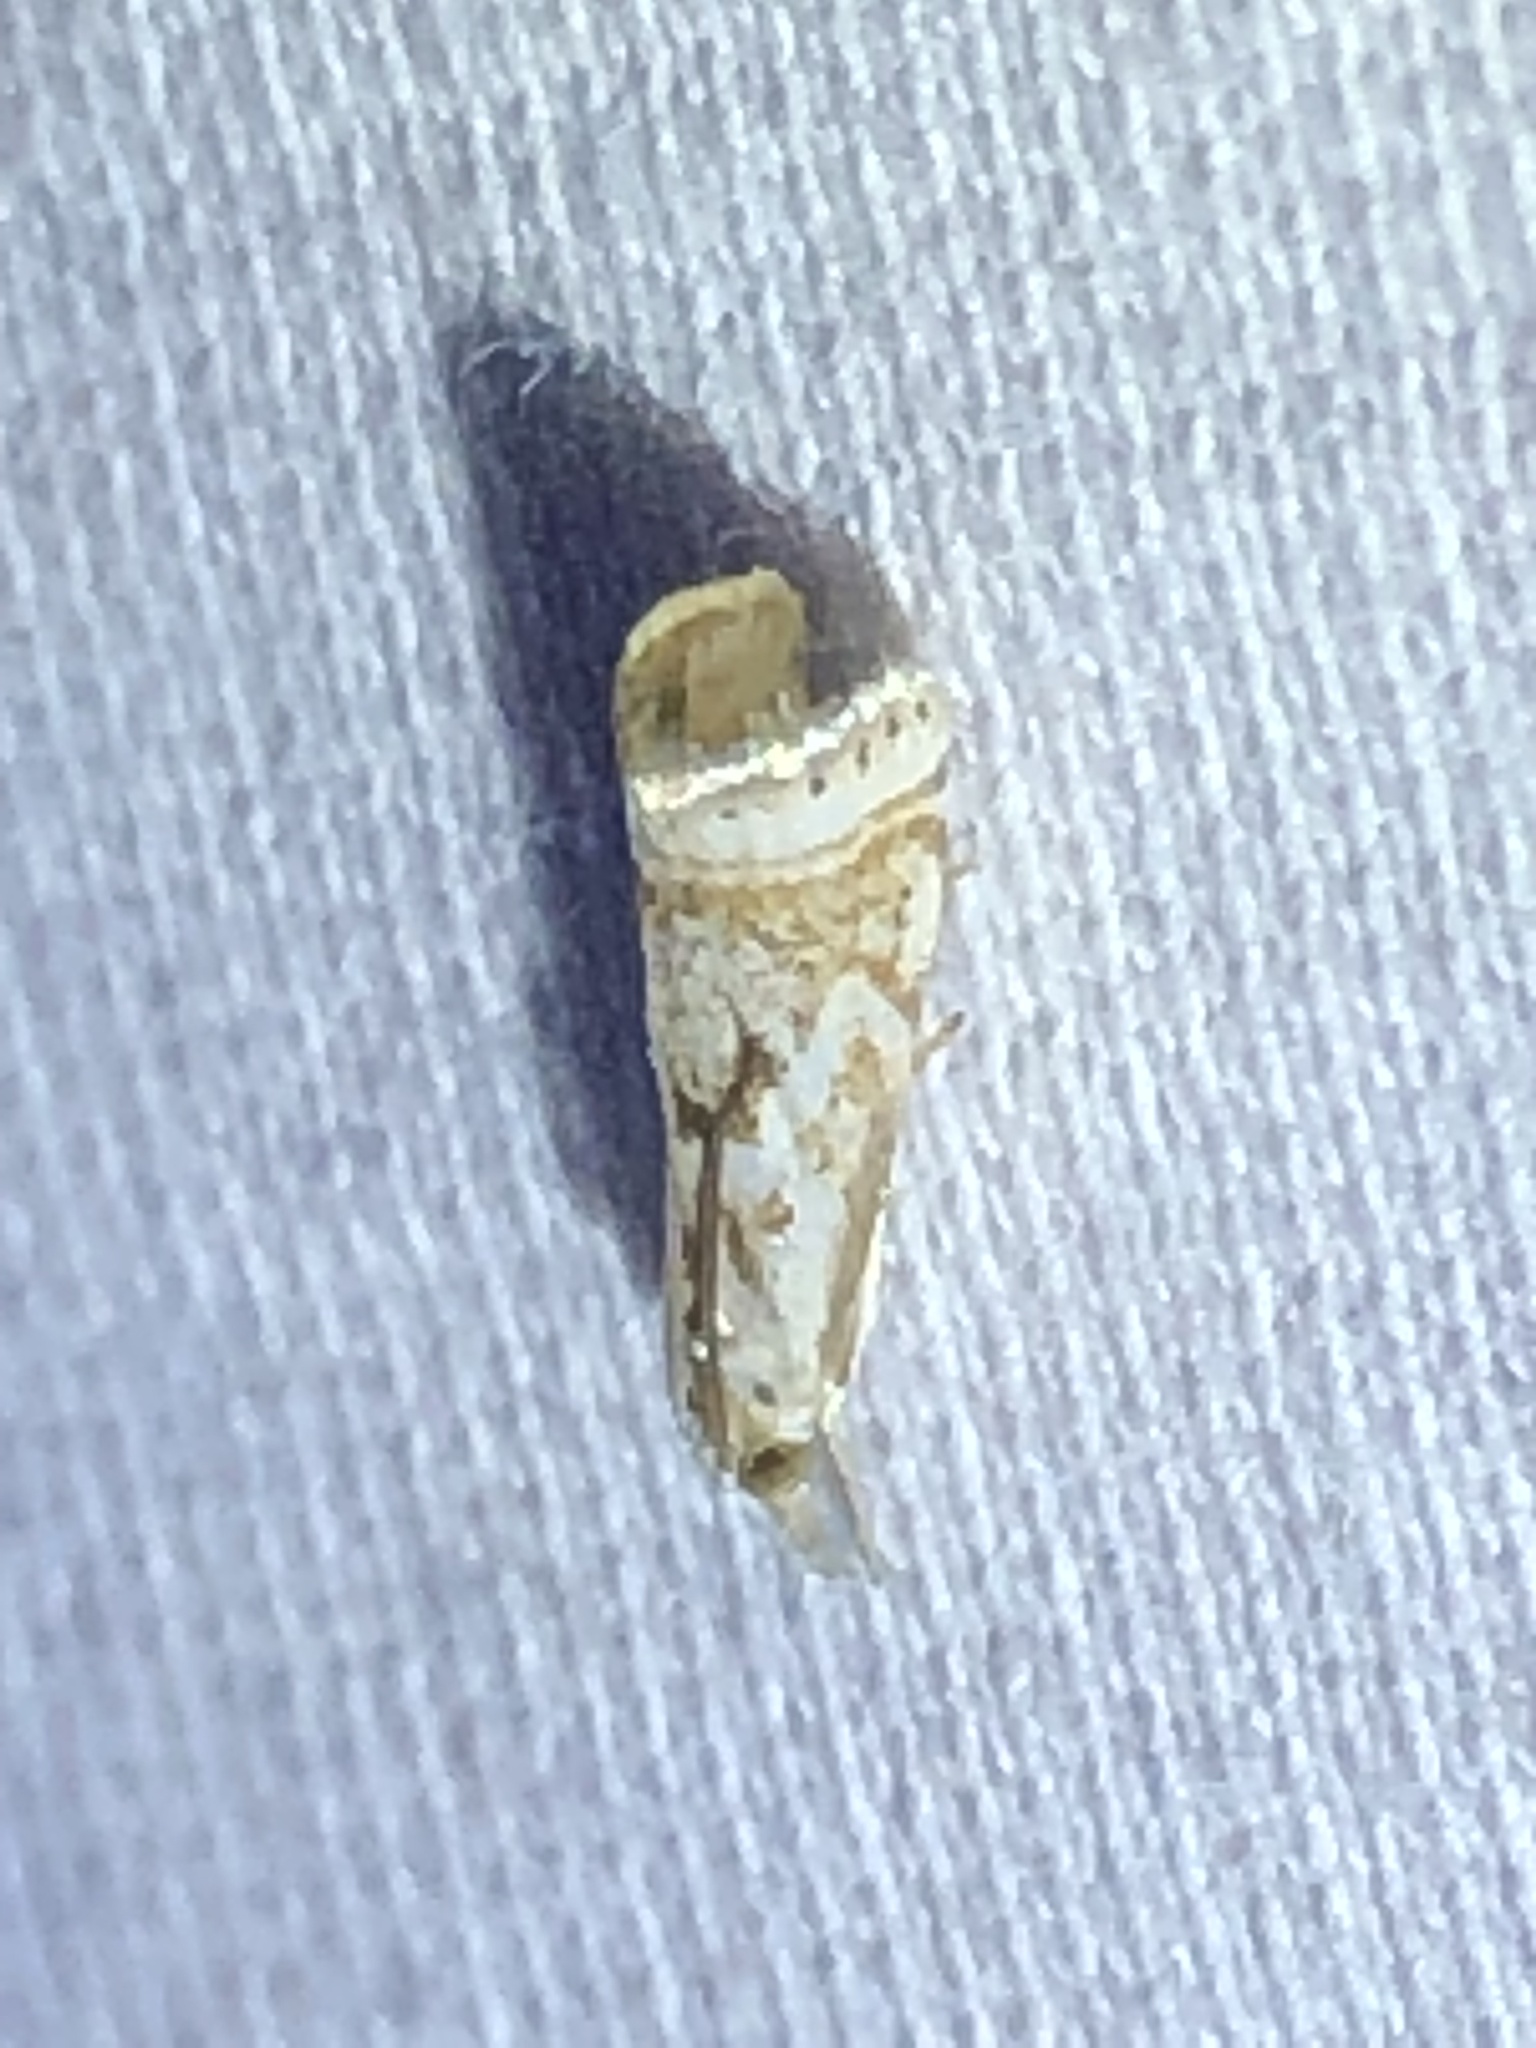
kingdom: Animalia
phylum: Arthropoda
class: Insecta
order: Lepidoptera
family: Crambidae
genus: Microcrambus
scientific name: Microcrambus elegans
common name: Elegant grass-veneer
